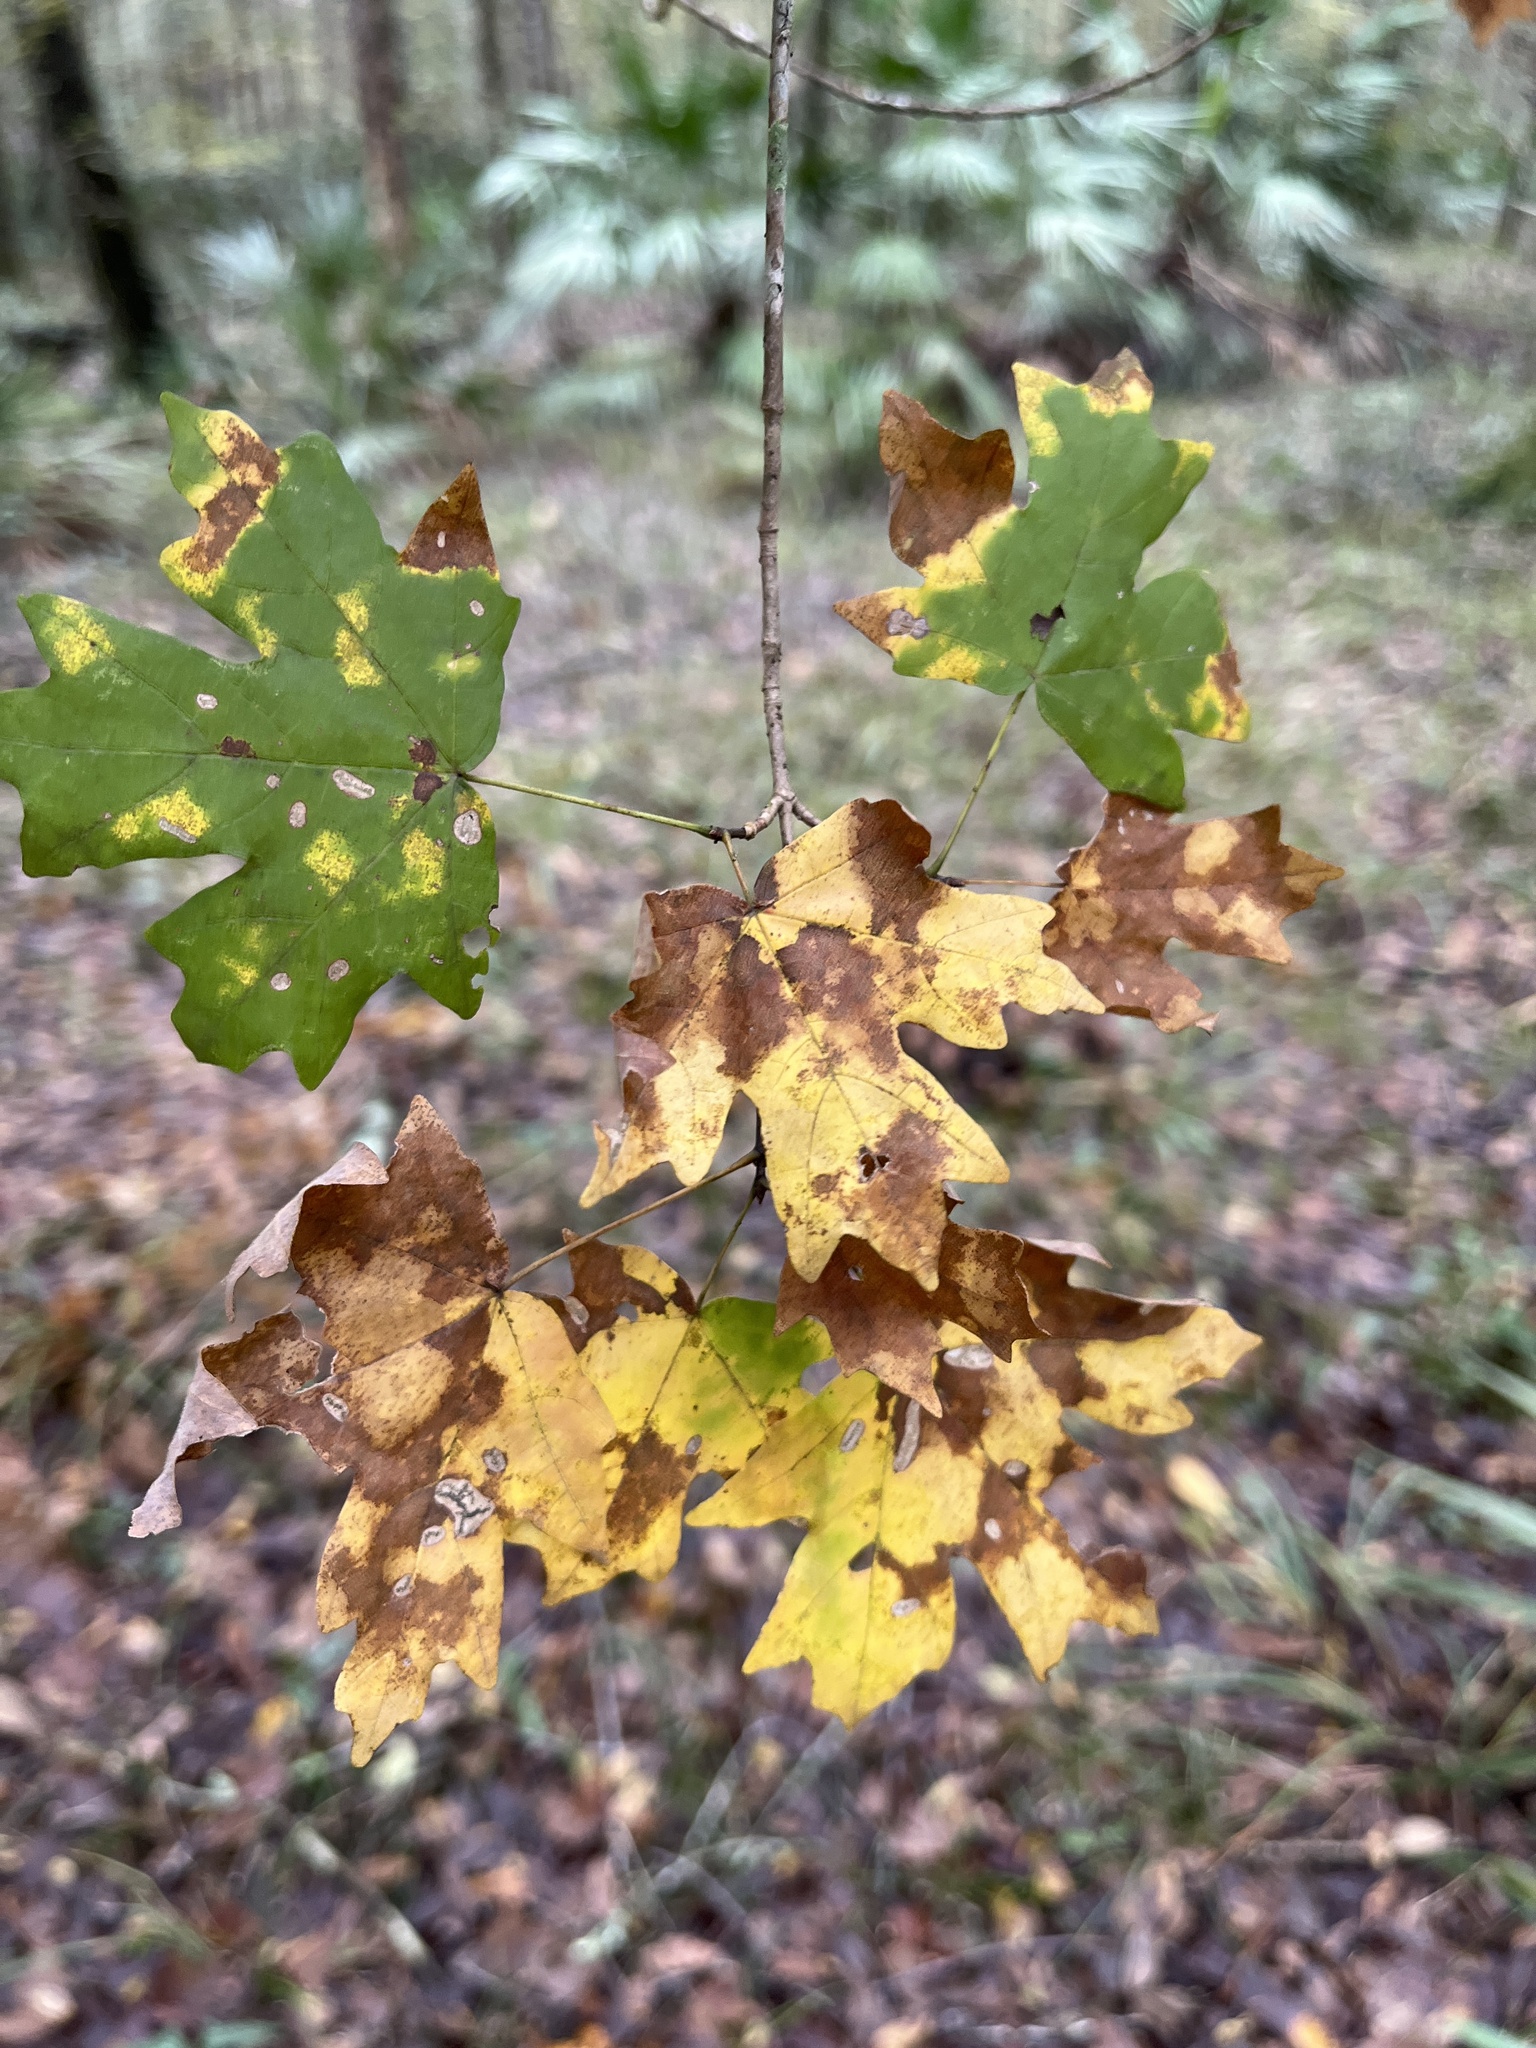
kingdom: Plantae
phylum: Tracheophyta
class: Magnoliopsida
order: Sapindales
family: Sapindaceae
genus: Acer
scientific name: Acer floridanum
